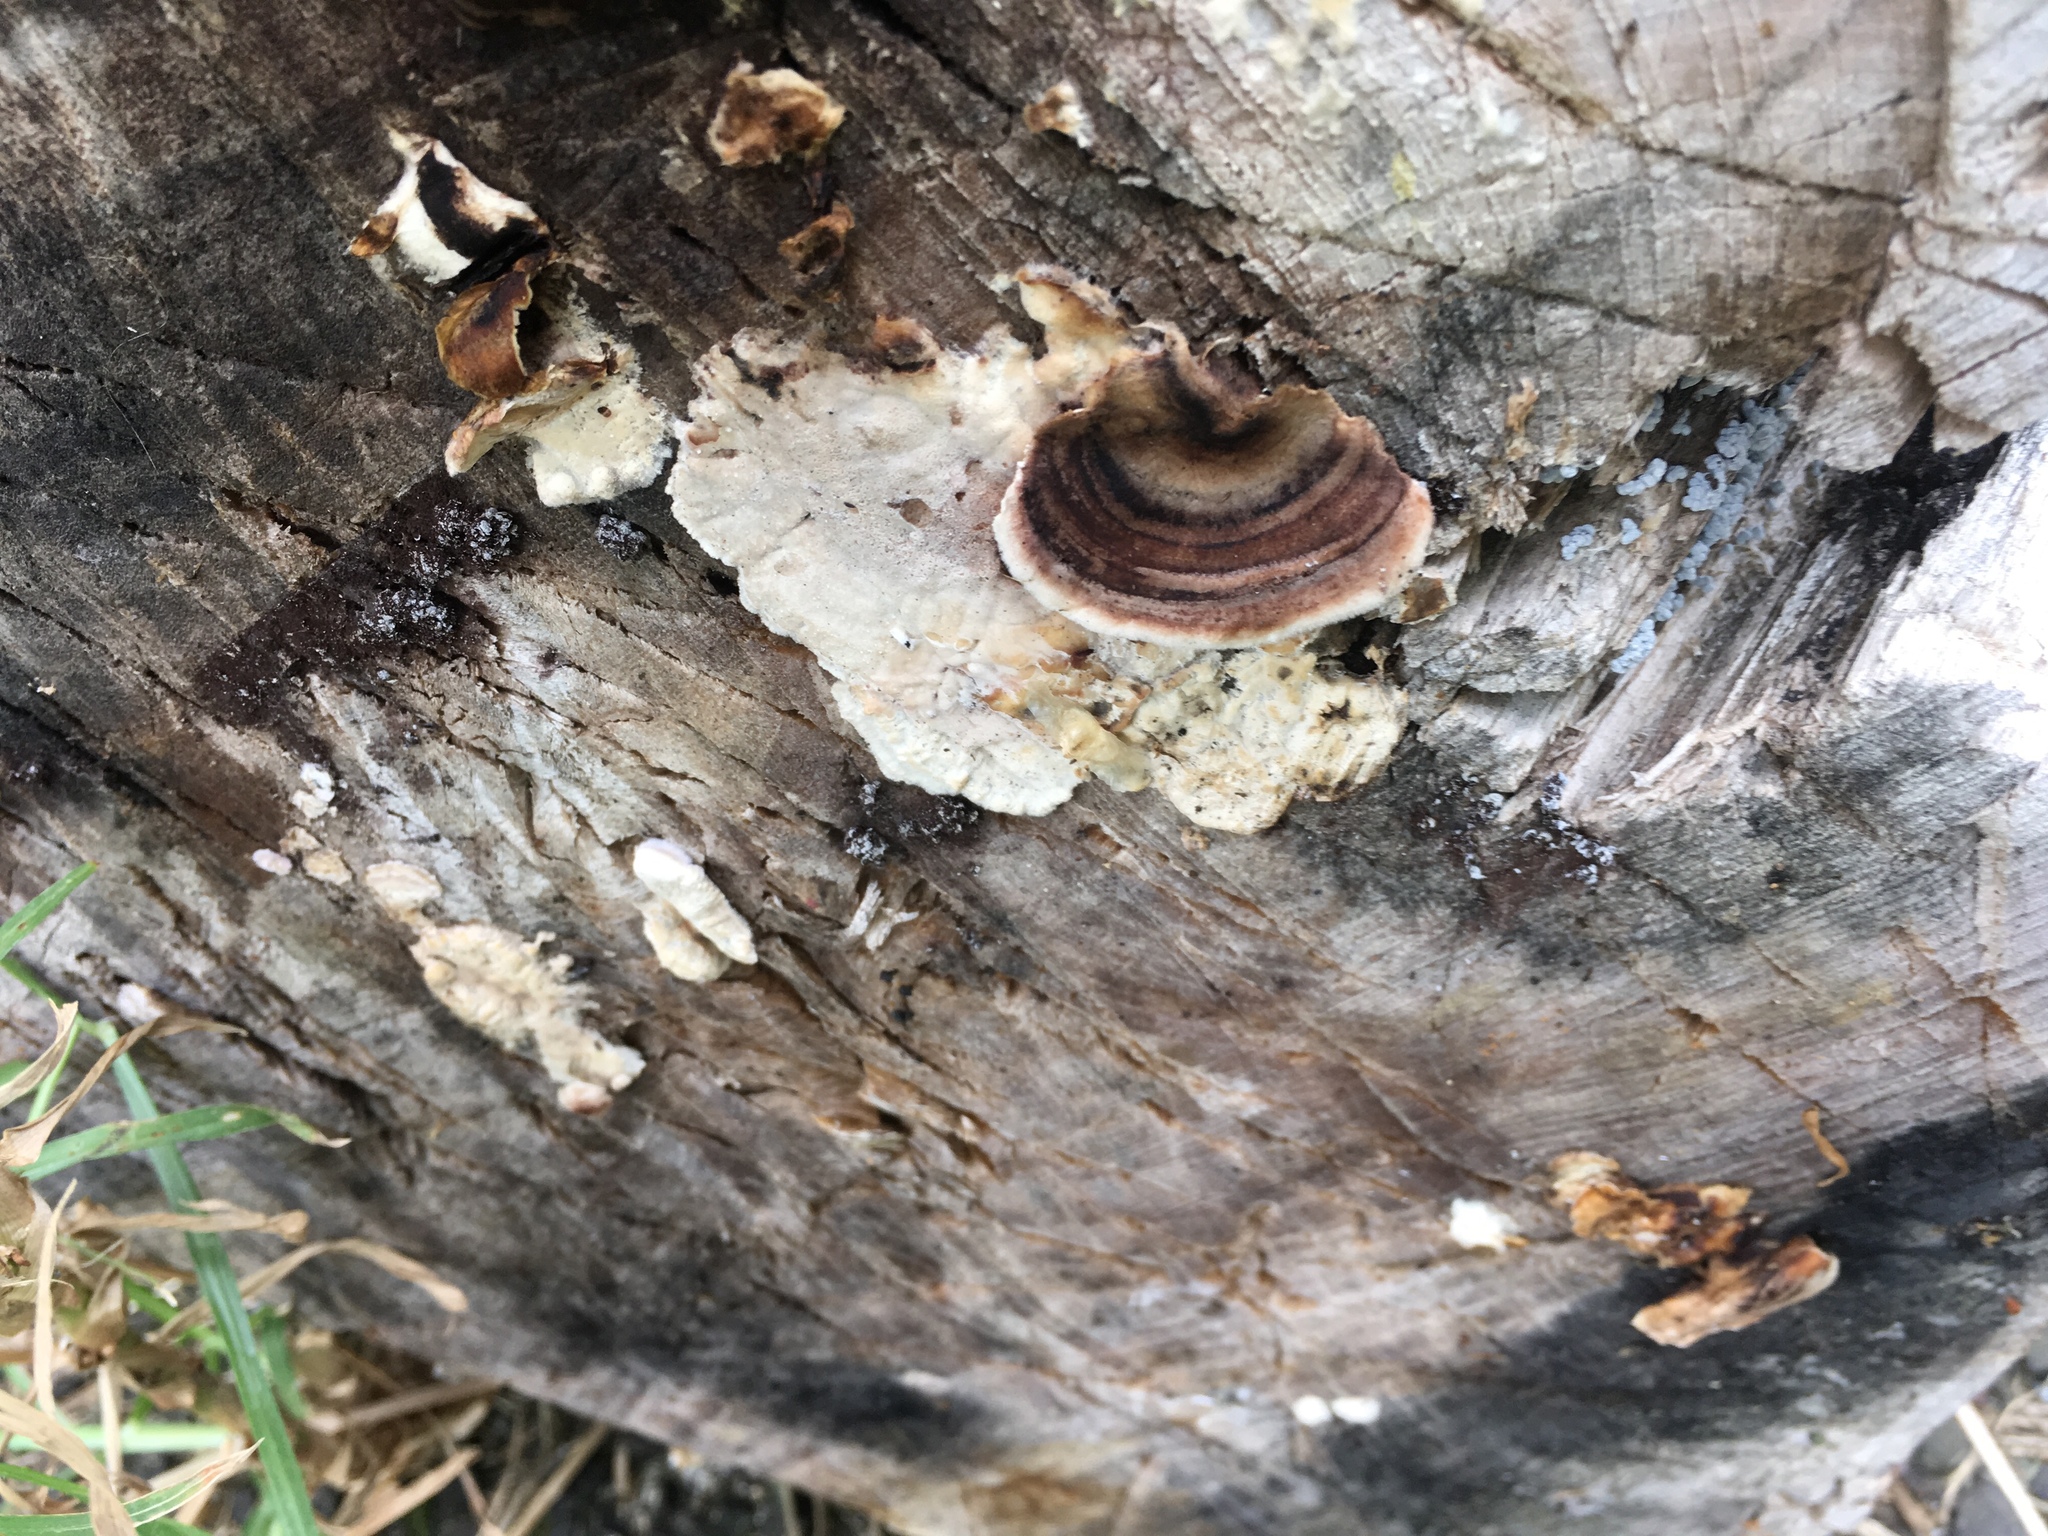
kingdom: Fungi
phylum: Basidiomycota
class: Agaricomycetes
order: Polyporales
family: Polyporaceae
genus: Trametes
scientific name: Trametes versicolor
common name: Turkeytail
